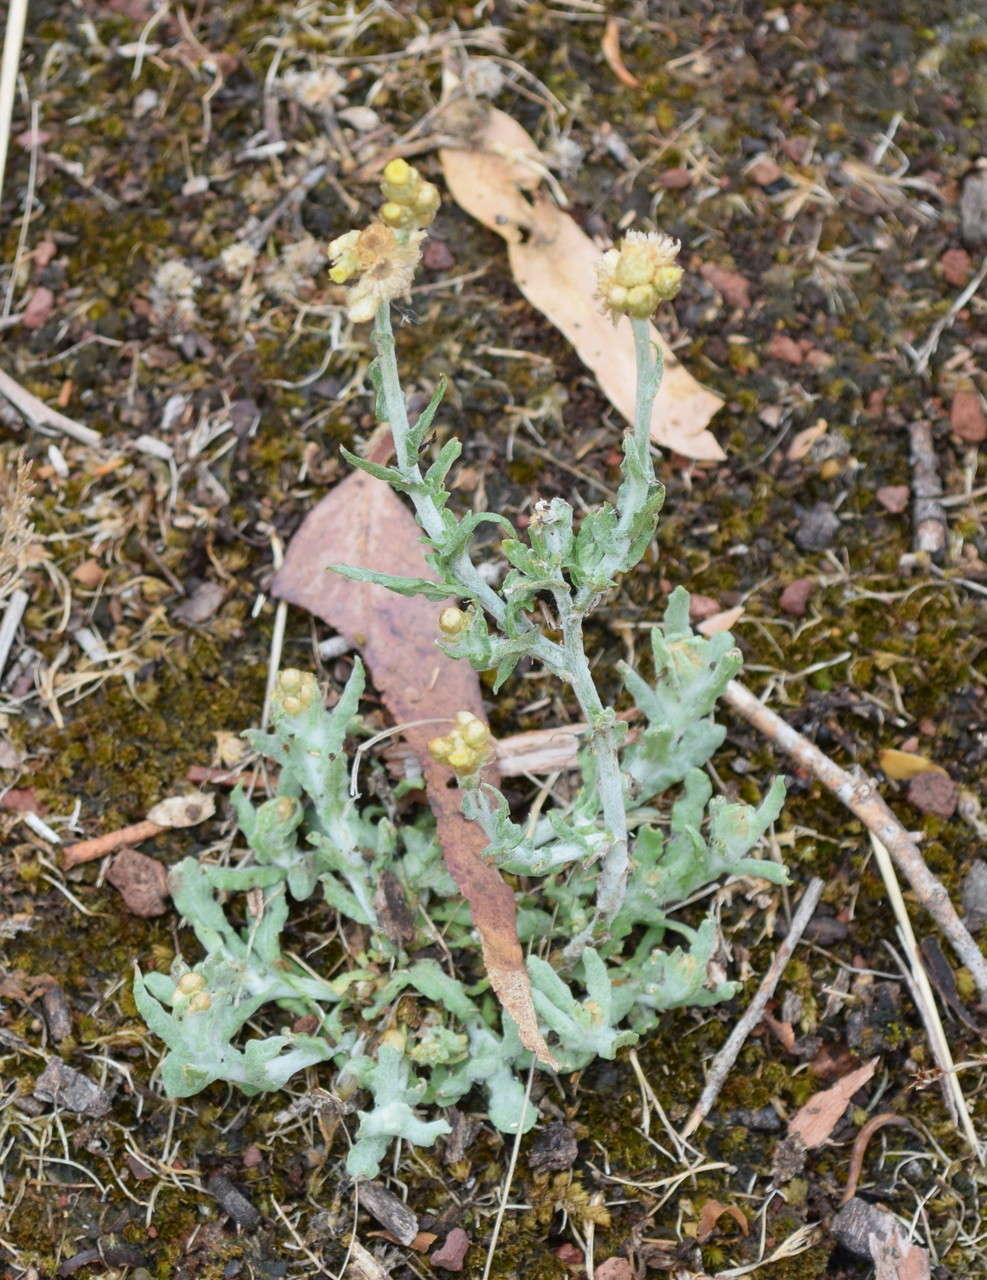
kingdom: Plantae
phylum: Tracheophyta
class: Magnoliopsida
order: Asterales
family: Asteraceae
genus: Helichrysum
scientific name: Helichrysum luteoalbum
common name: Daisy
